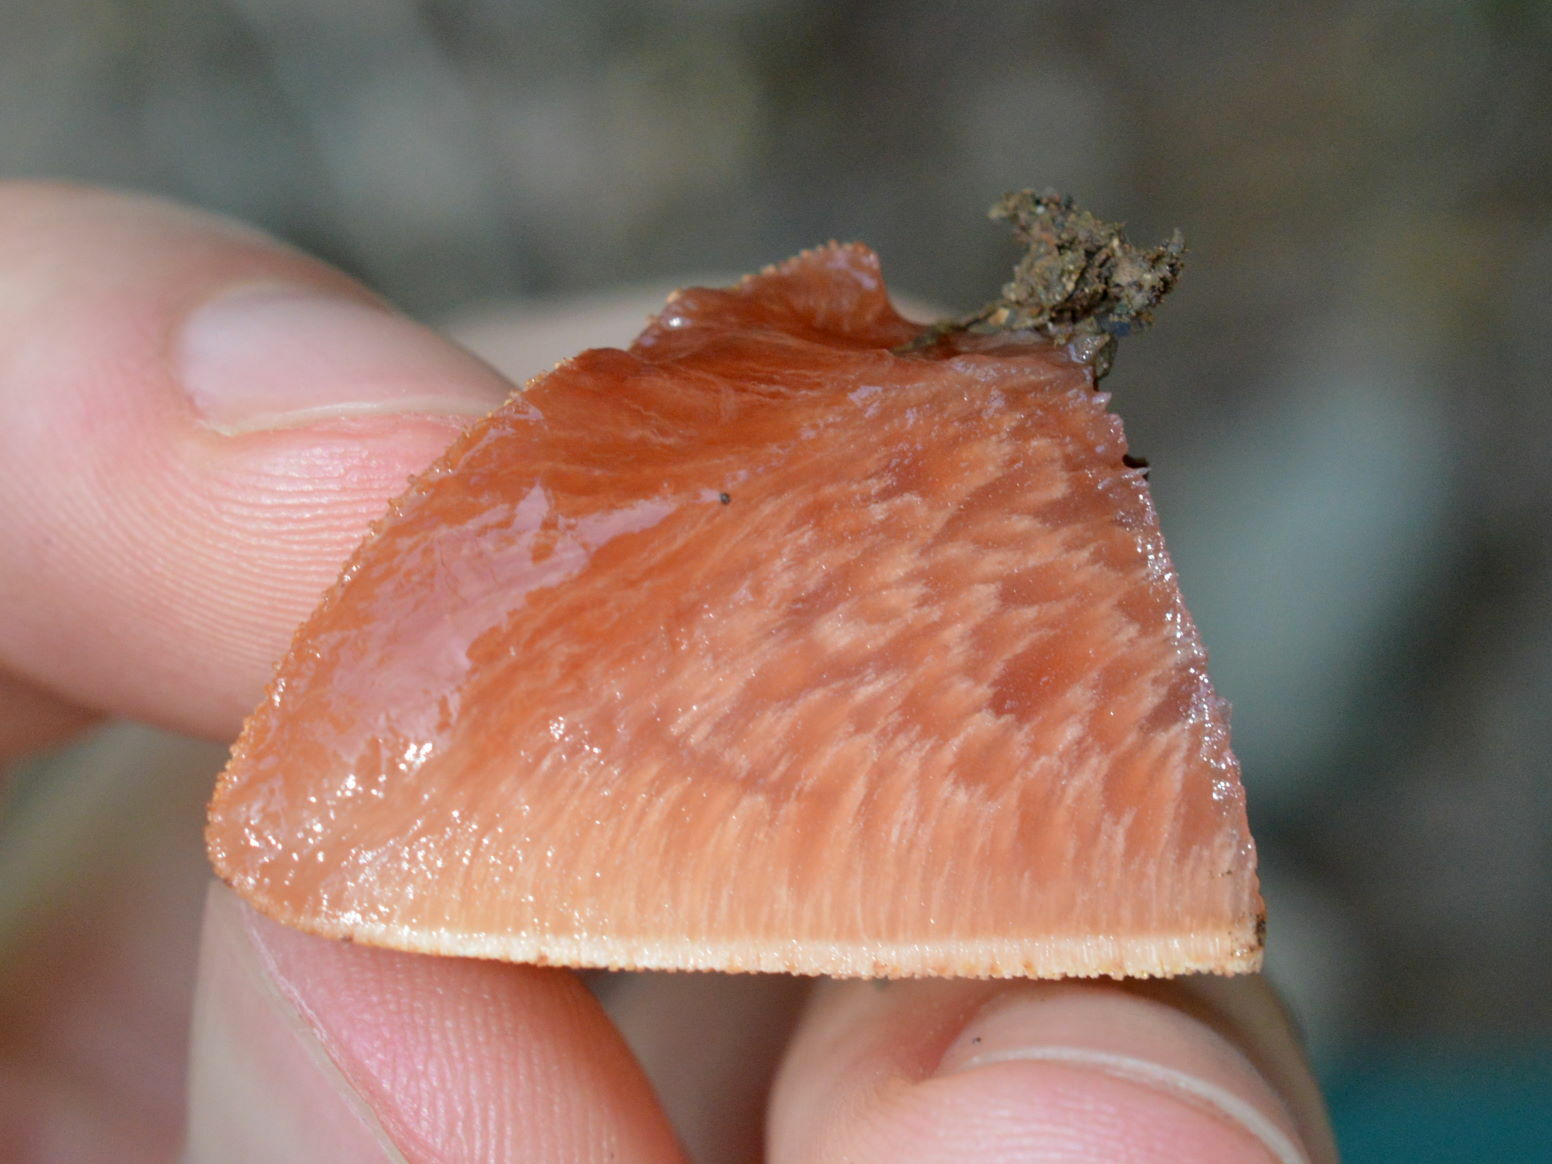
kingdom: Fungi
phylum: Basidiomycota
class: Agaricomycetes
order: Agaricales
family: Fistulinaceae
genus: Fistulina
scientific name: Fistulina hepatica
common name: Beef-steak fungus
